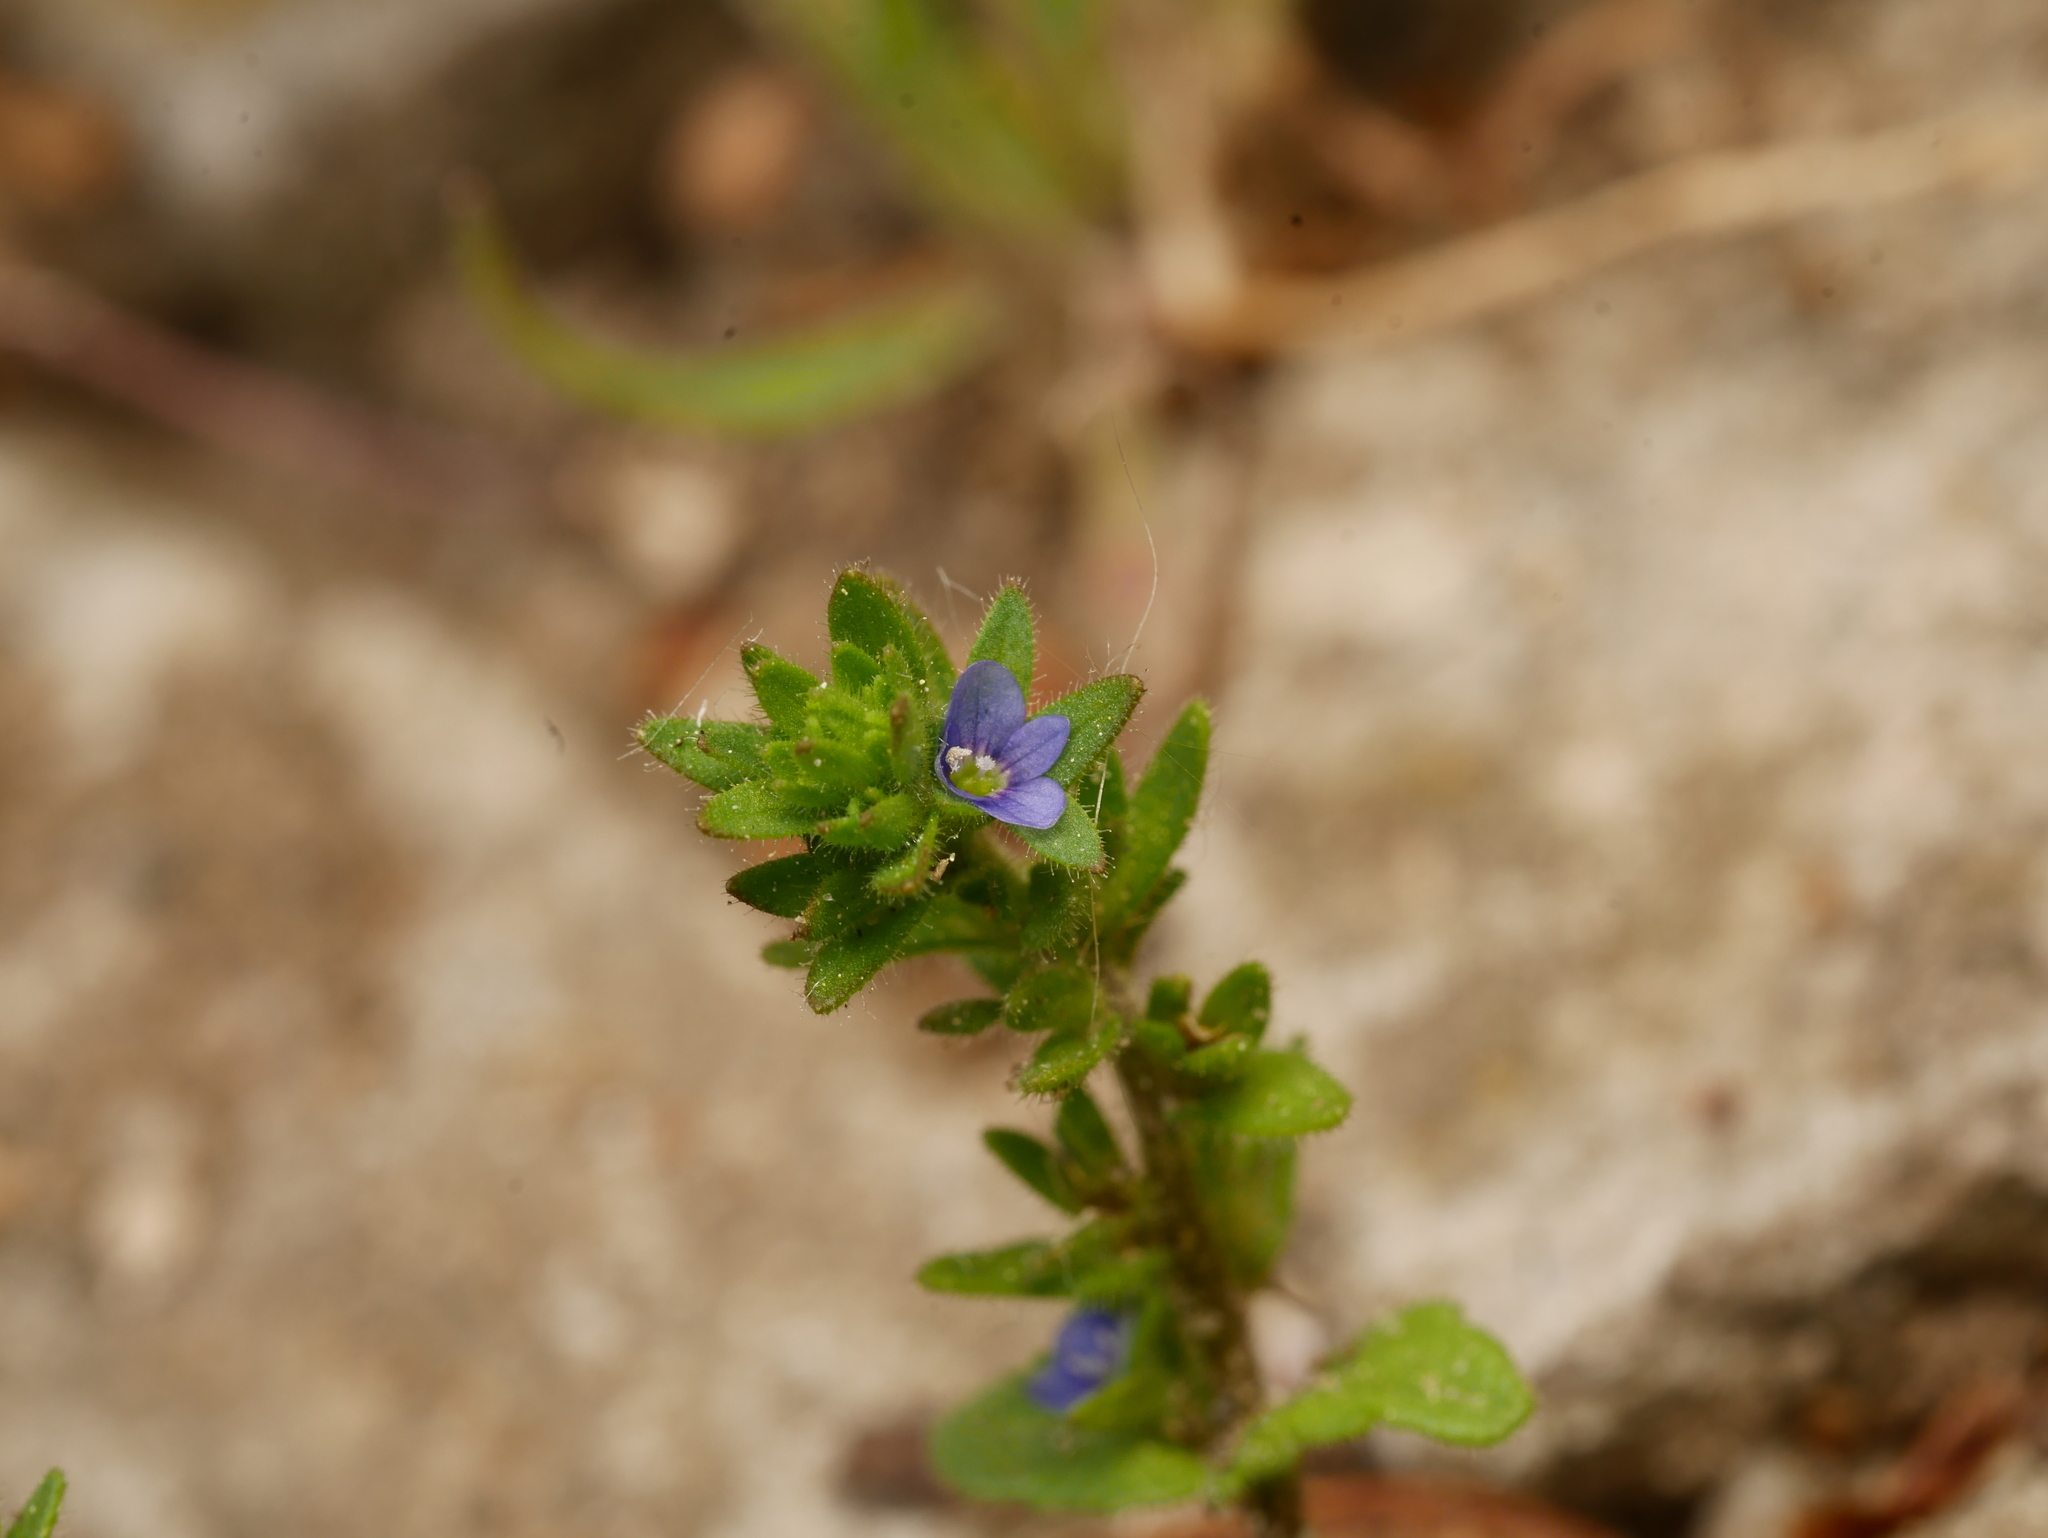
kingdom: Plantae
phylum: Tracheophyta
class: Magnoliopsida
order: Lamiales
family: Plantaginaceae
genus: Veronica
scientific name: Veronica arvensis
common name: Corn speedwell
